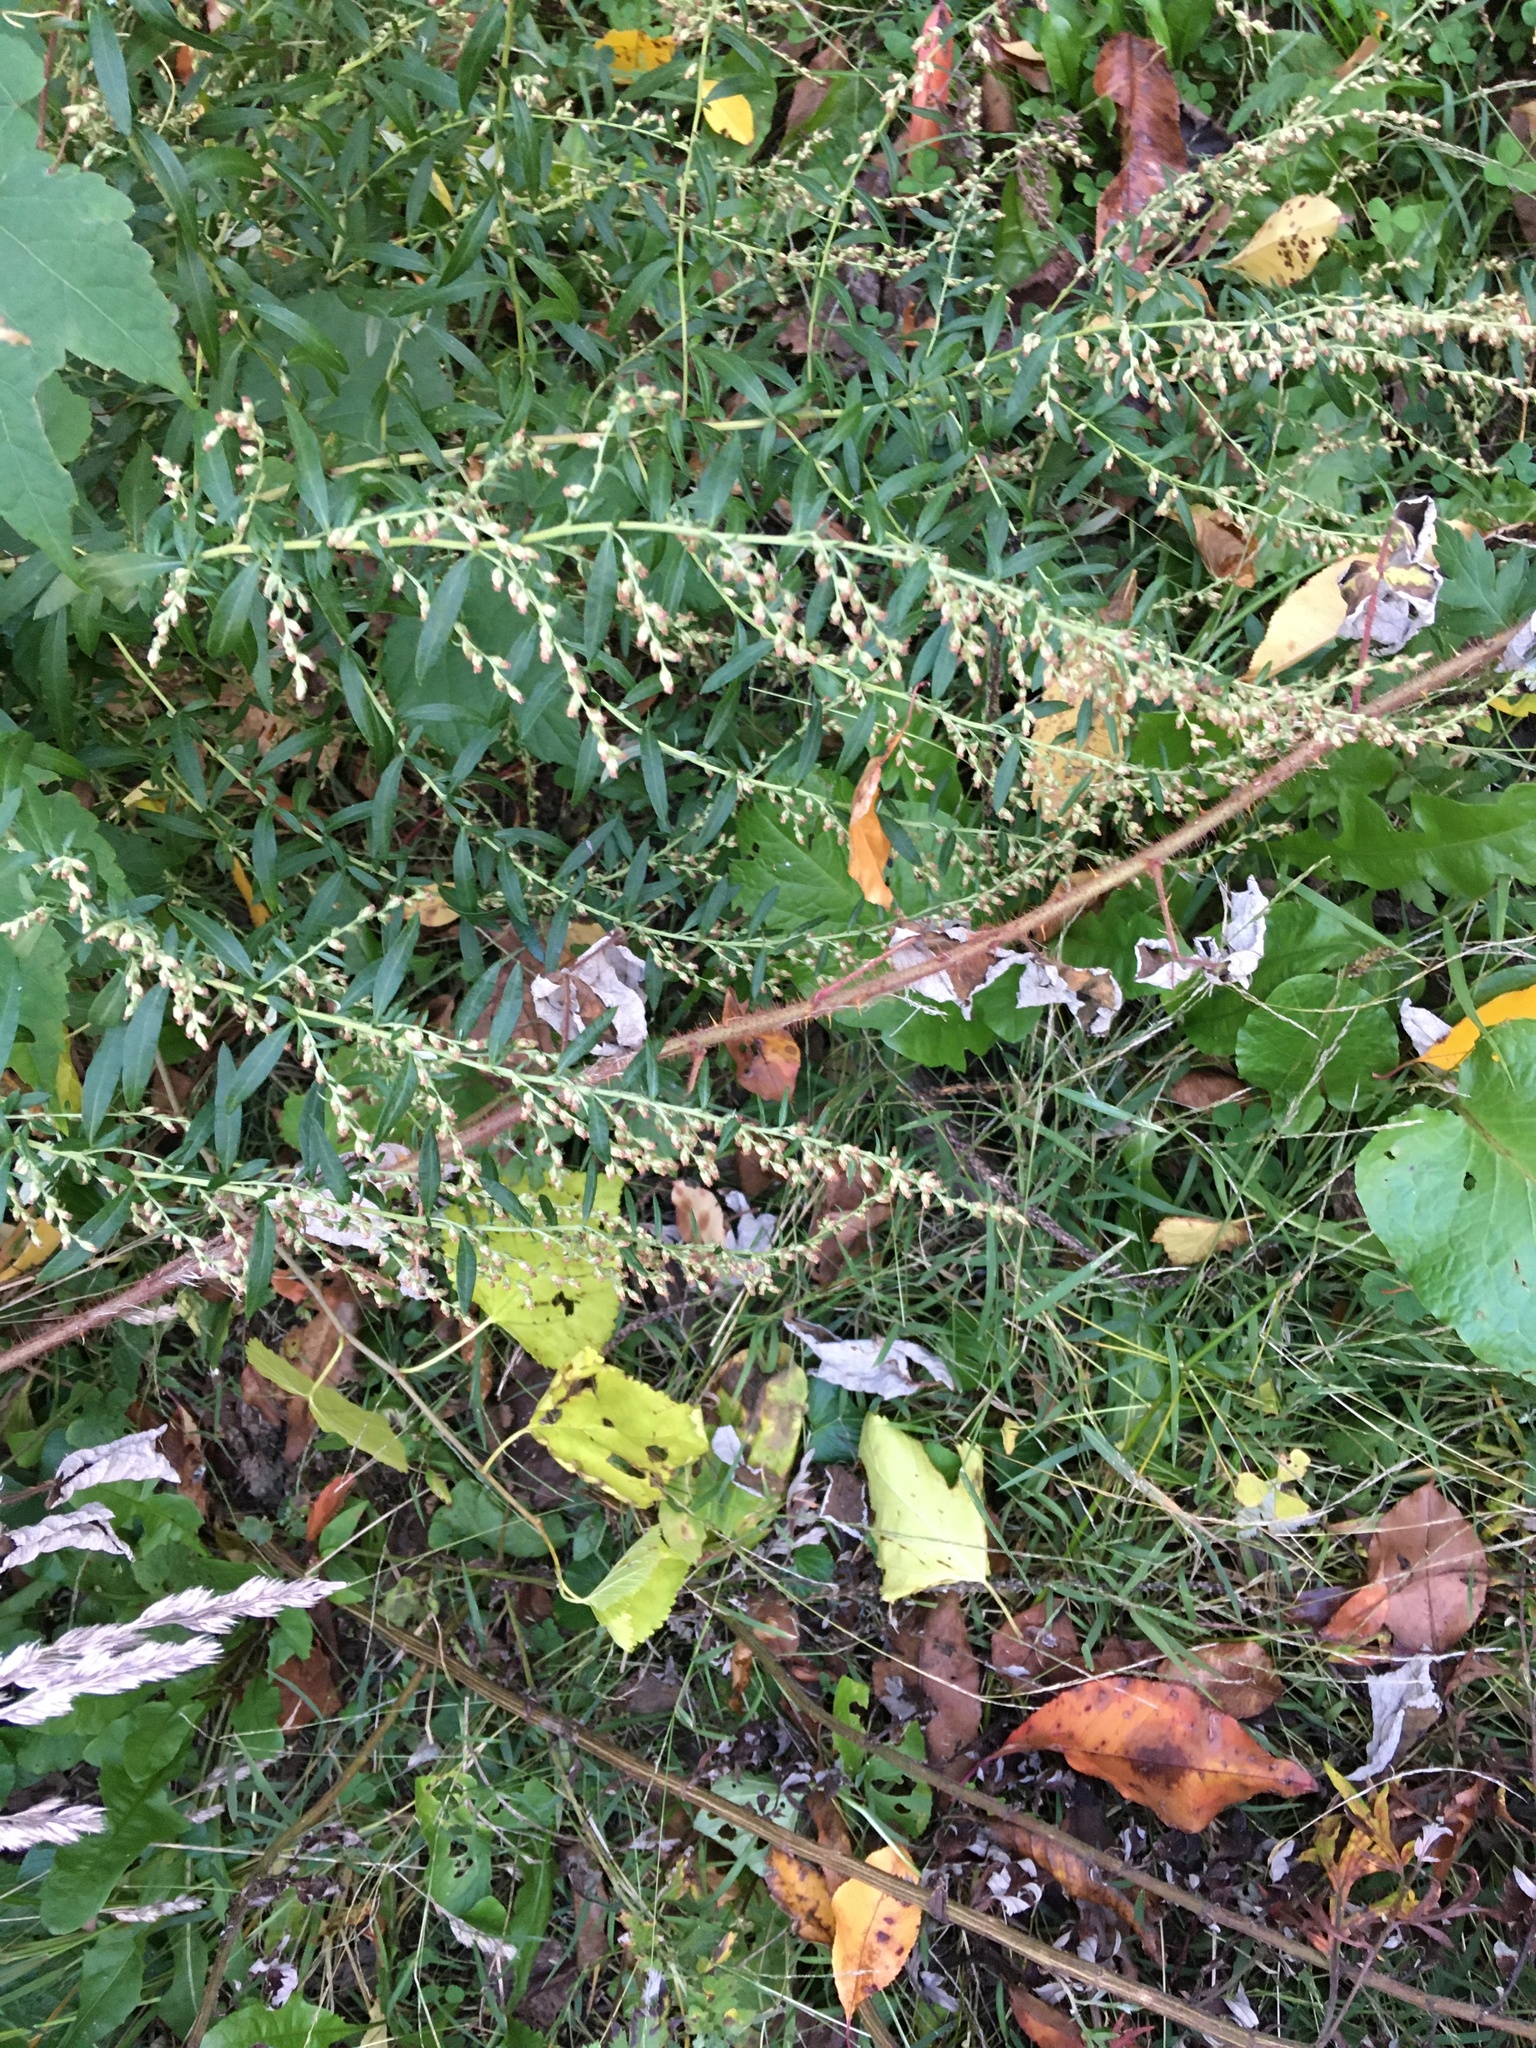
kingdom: Plantae
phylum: Tracheophyta
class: Magnoliopsida
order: Asterales
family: Asteraceae
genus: Artemisia
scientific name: Artemisia vulgaris
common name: Mugwort
